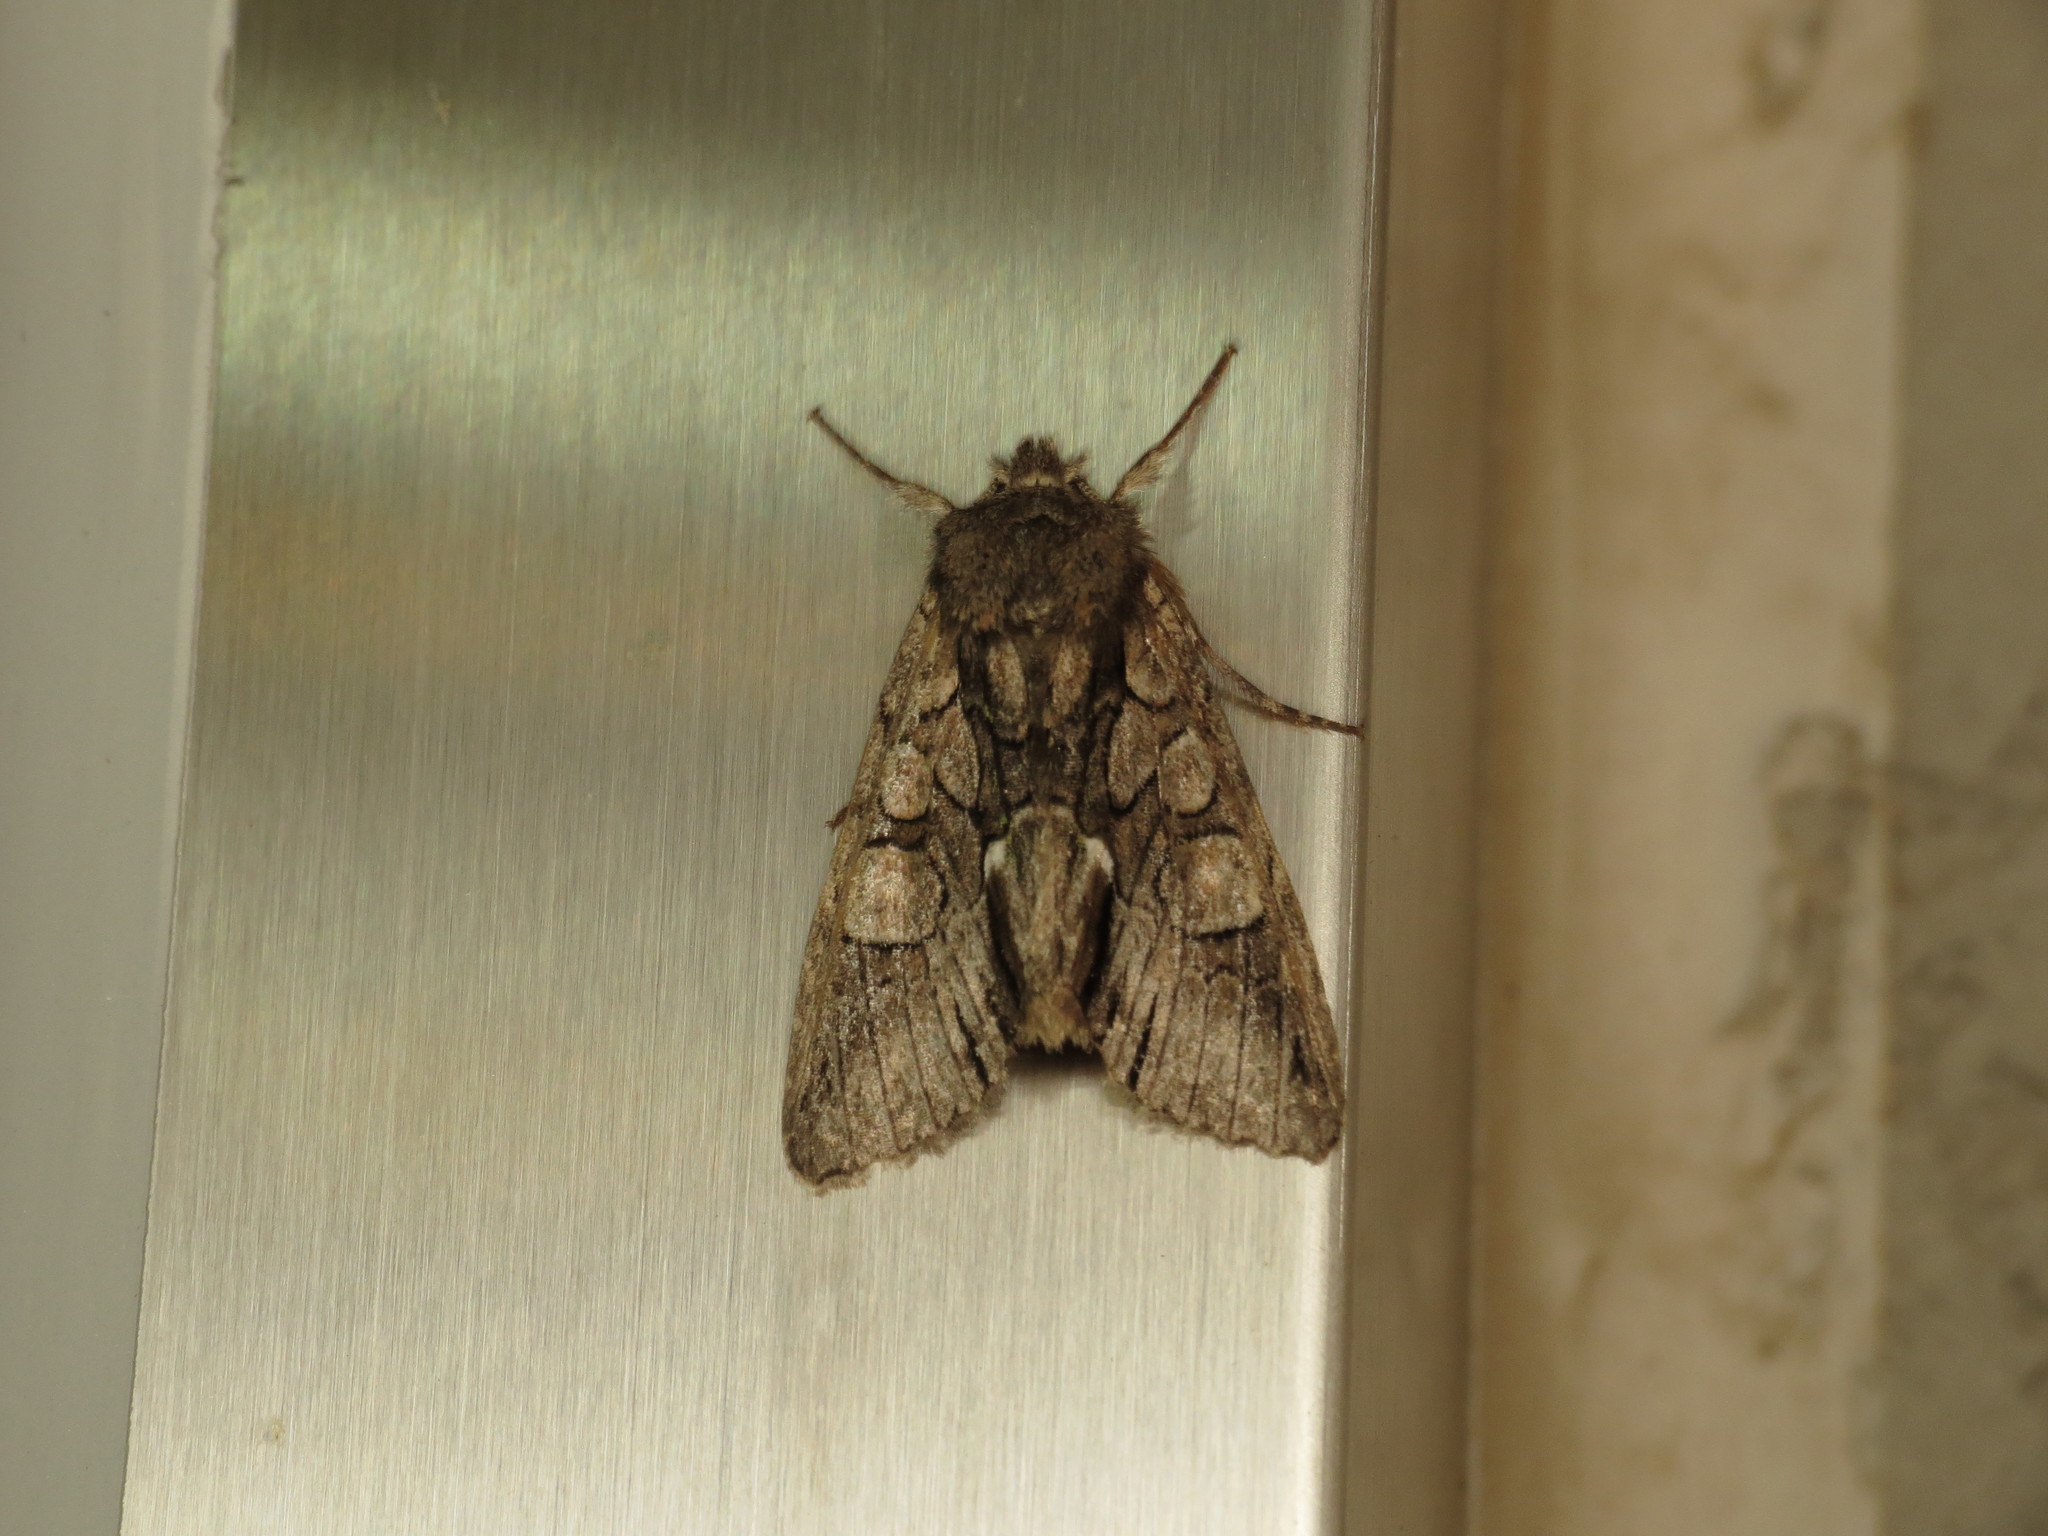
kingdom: Animalia
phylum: Arthropoda
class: Insecta
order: Lepidoptera
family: Noctuidae
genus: Belosticta
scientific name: Belosticta cinerea
